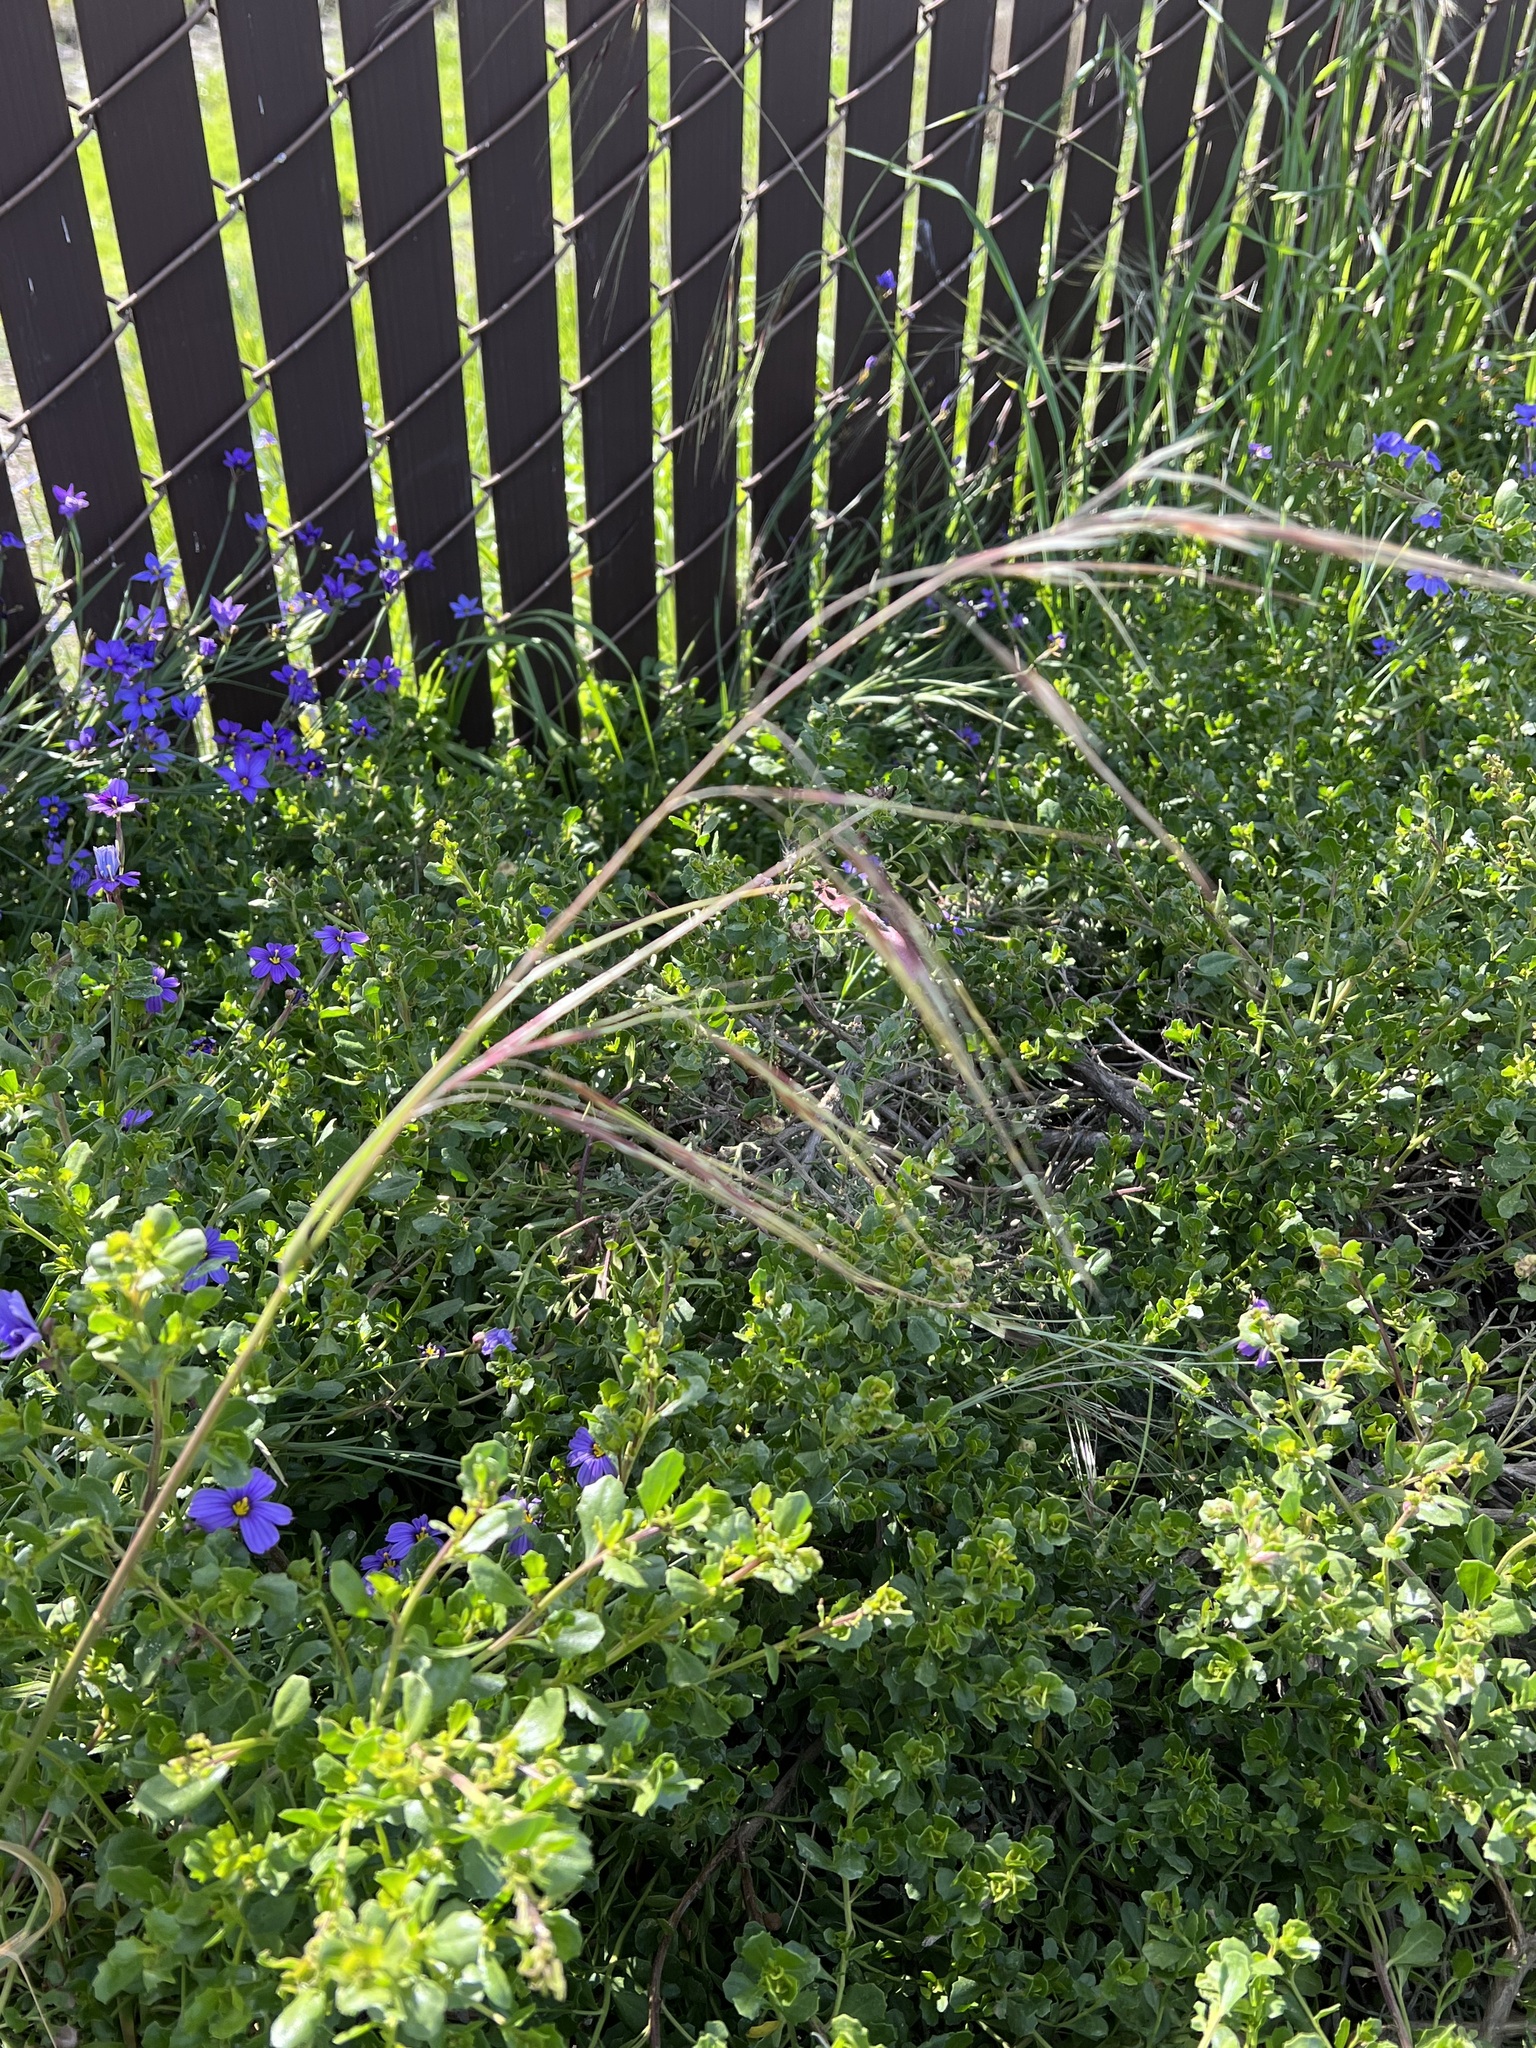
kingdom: Plantae
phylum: Tracheophyta
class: Liliopsida
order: Poales
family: Poaceae
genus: Nassella
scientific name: Nassella pulchra
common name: Purple needlegrass
